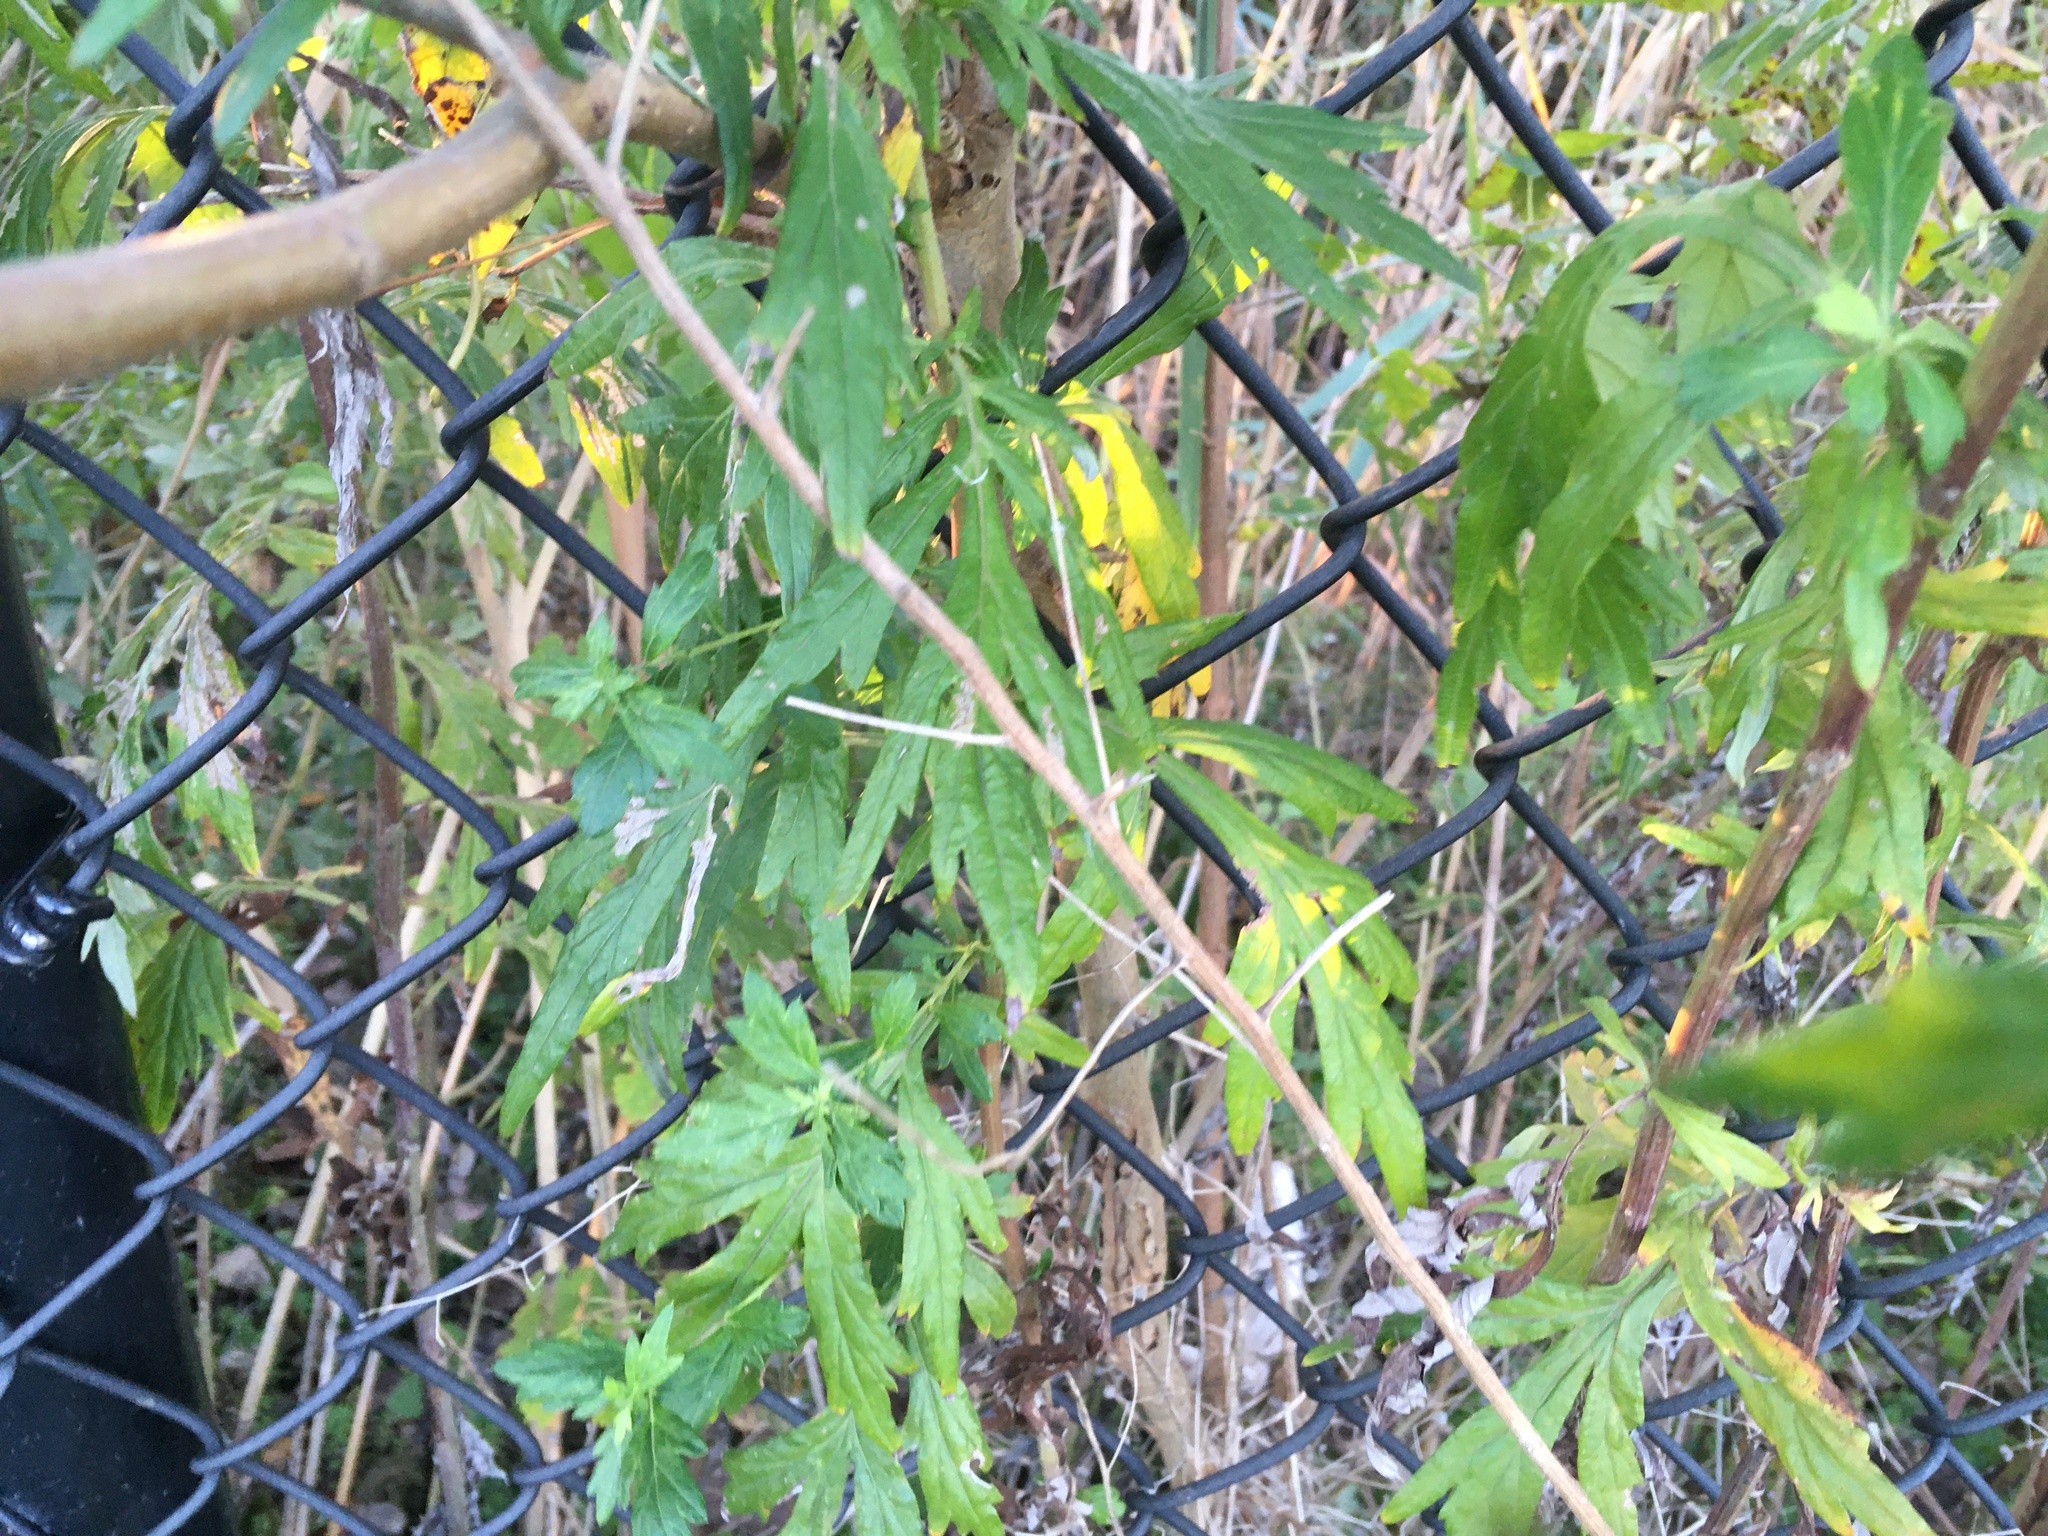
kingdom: Plantae
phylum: Tracheophyta
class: Magnoliopsida
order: Asterales
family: Asteraceae
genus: Artemisia
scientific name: Artemisia vulgaris
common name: Mugwort
